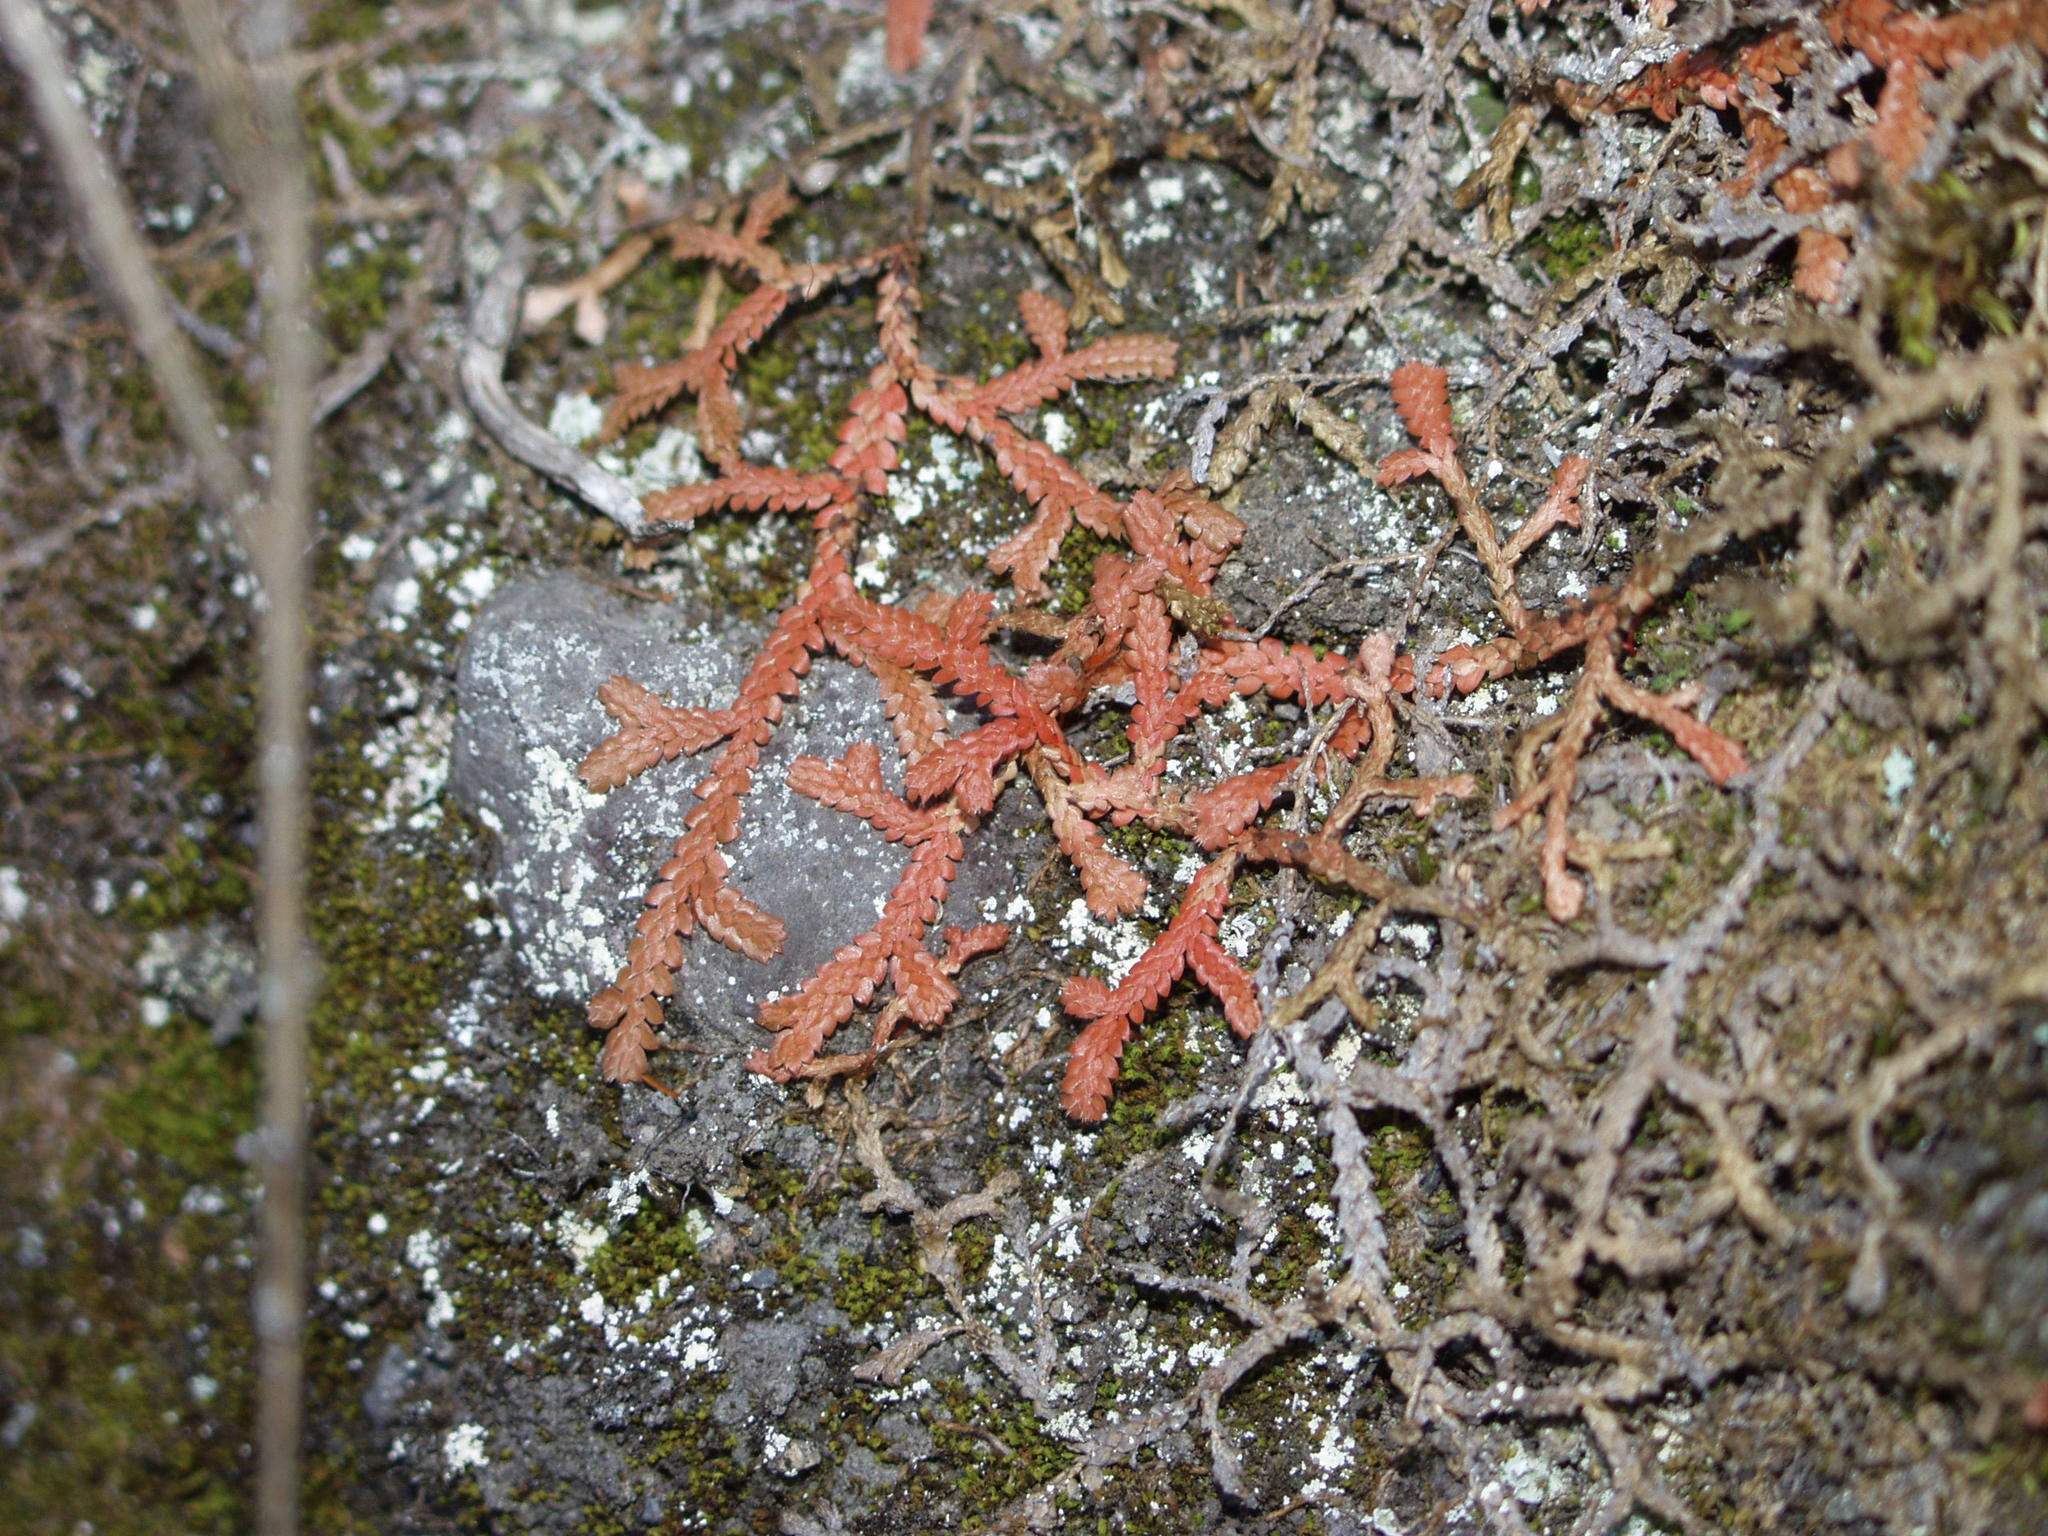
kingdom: Plantae
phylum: Tracheophyta
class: Lycopodiopsida
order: Selaginellales
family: Selaginellaceae
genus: Selaginella
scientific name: Selaginella denticulata
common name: Toothed-leaved clubmoss
